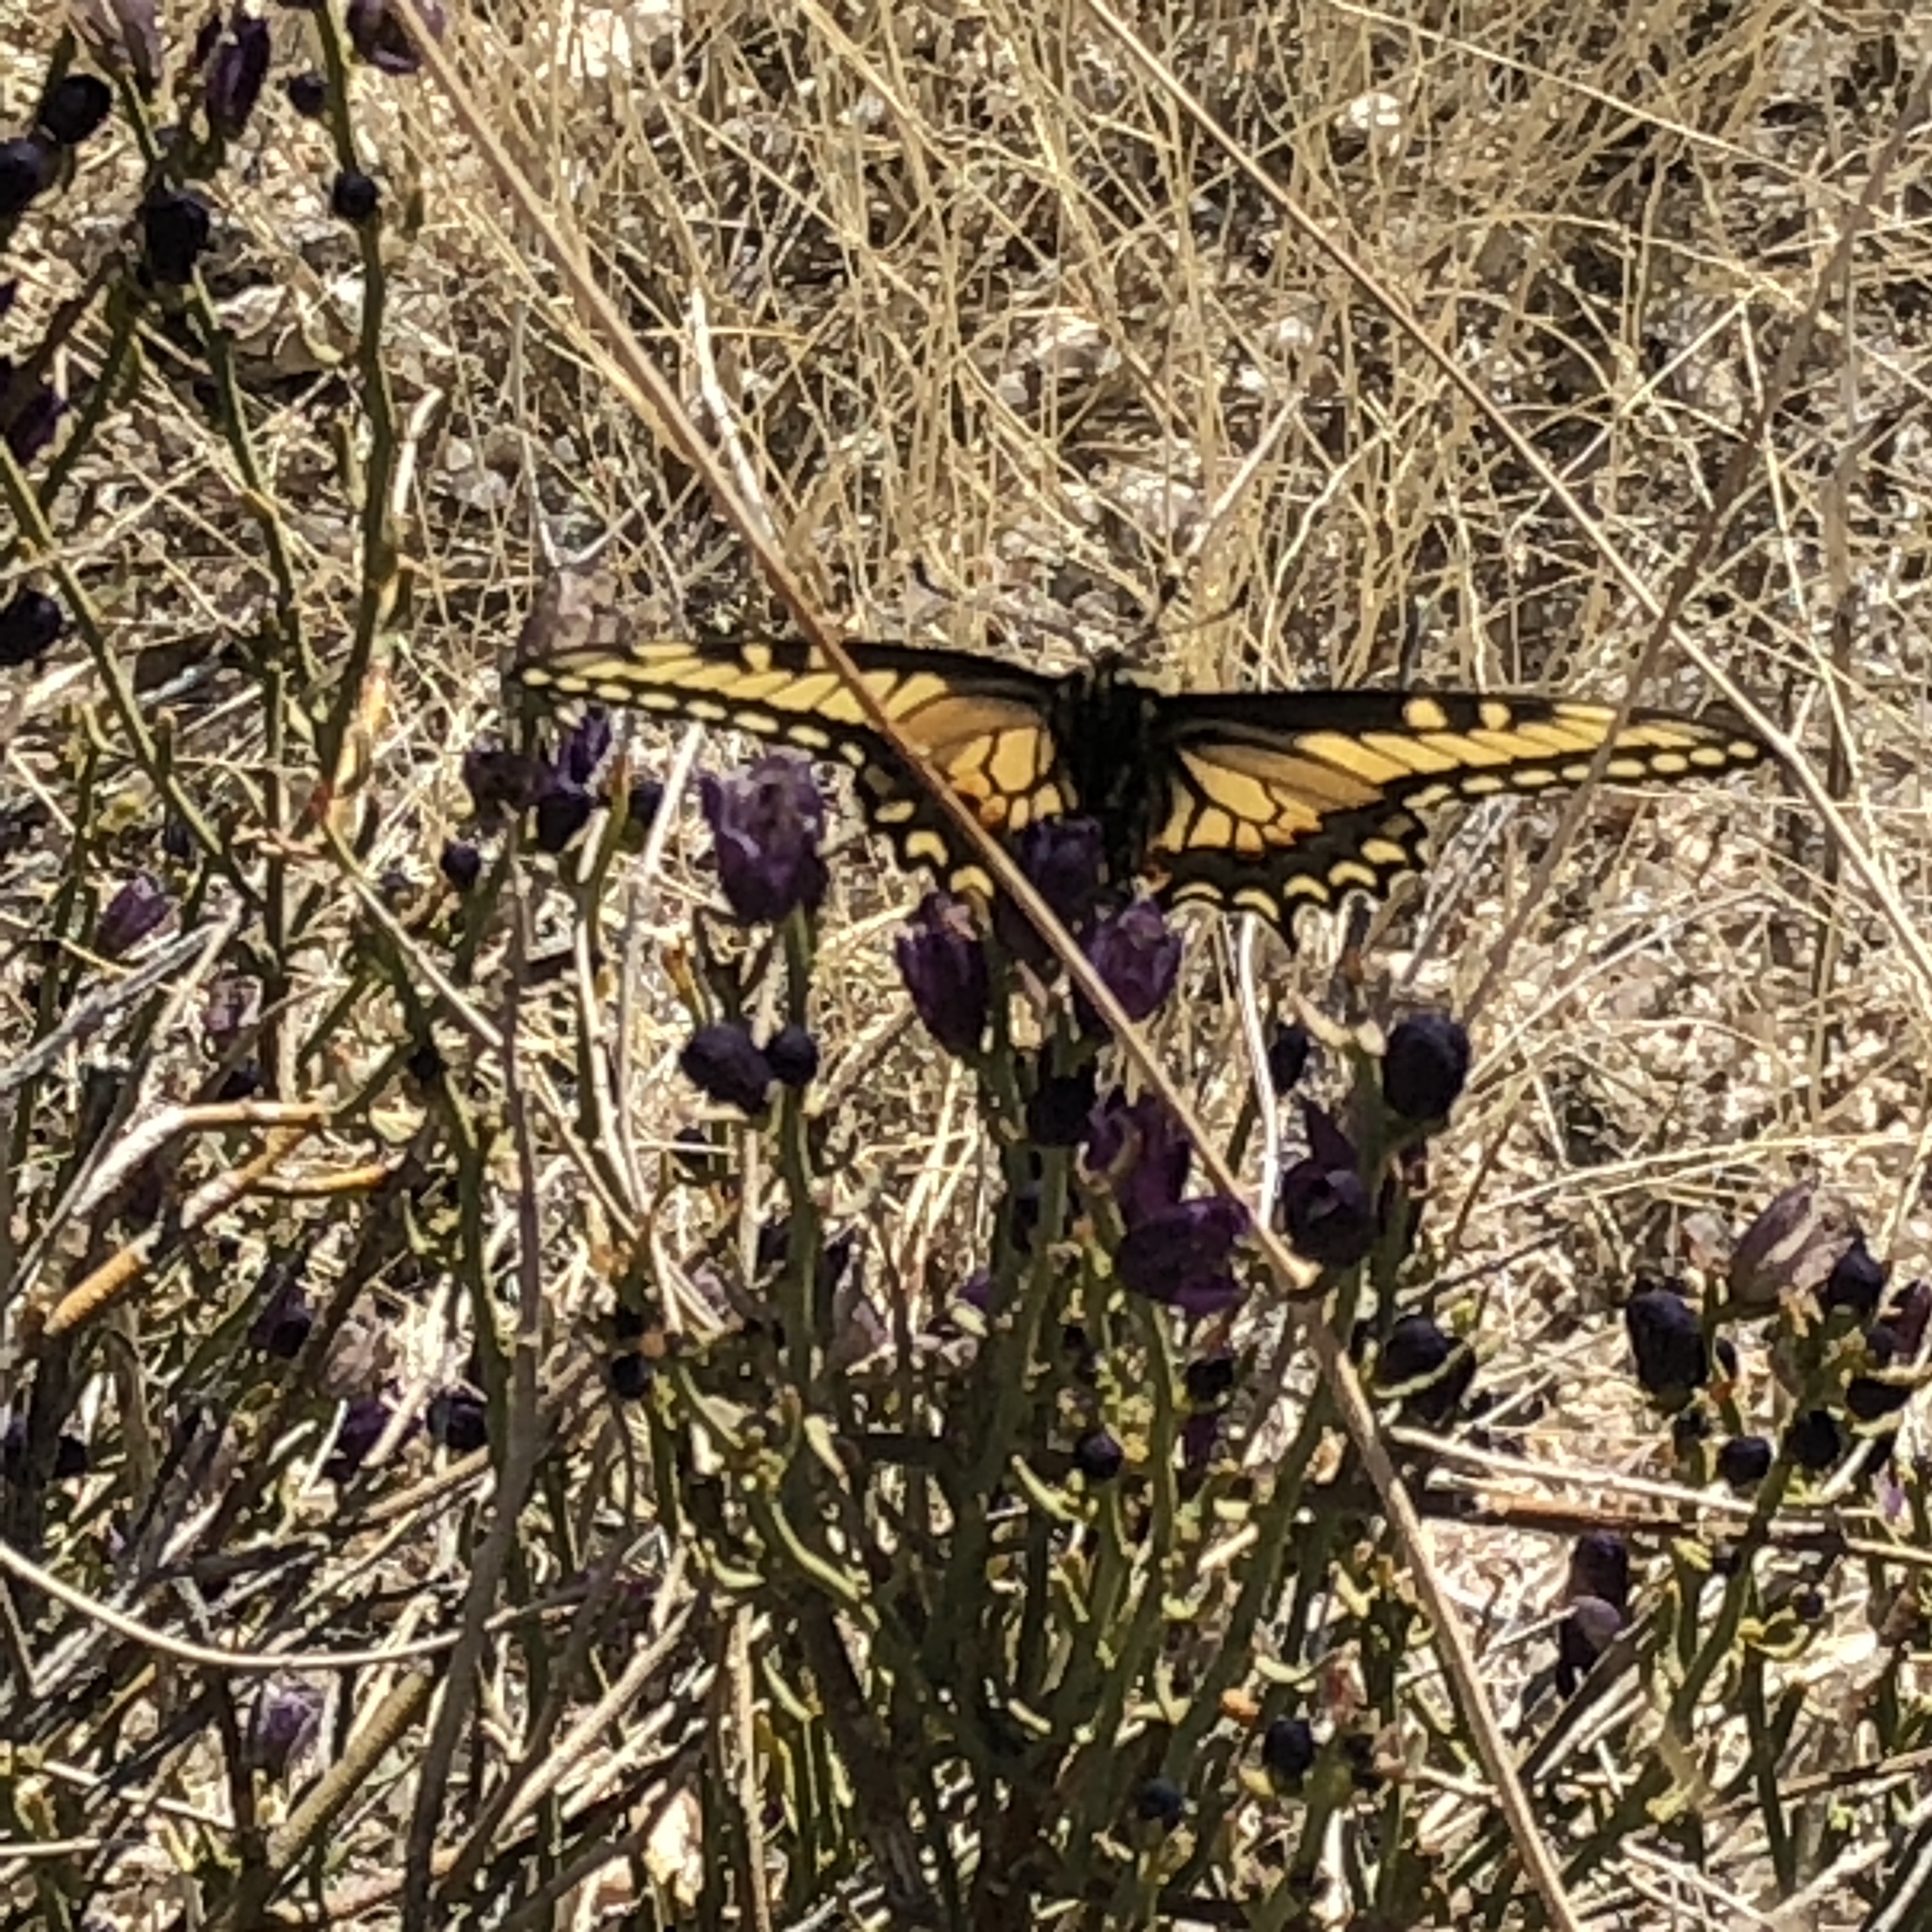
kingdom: Animalia
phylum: Arthropoda
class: Insecta
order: Lepidoptera
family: Papilionidae
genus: Papilio
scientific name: Papilio polyxenes
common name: Black swallowtail
